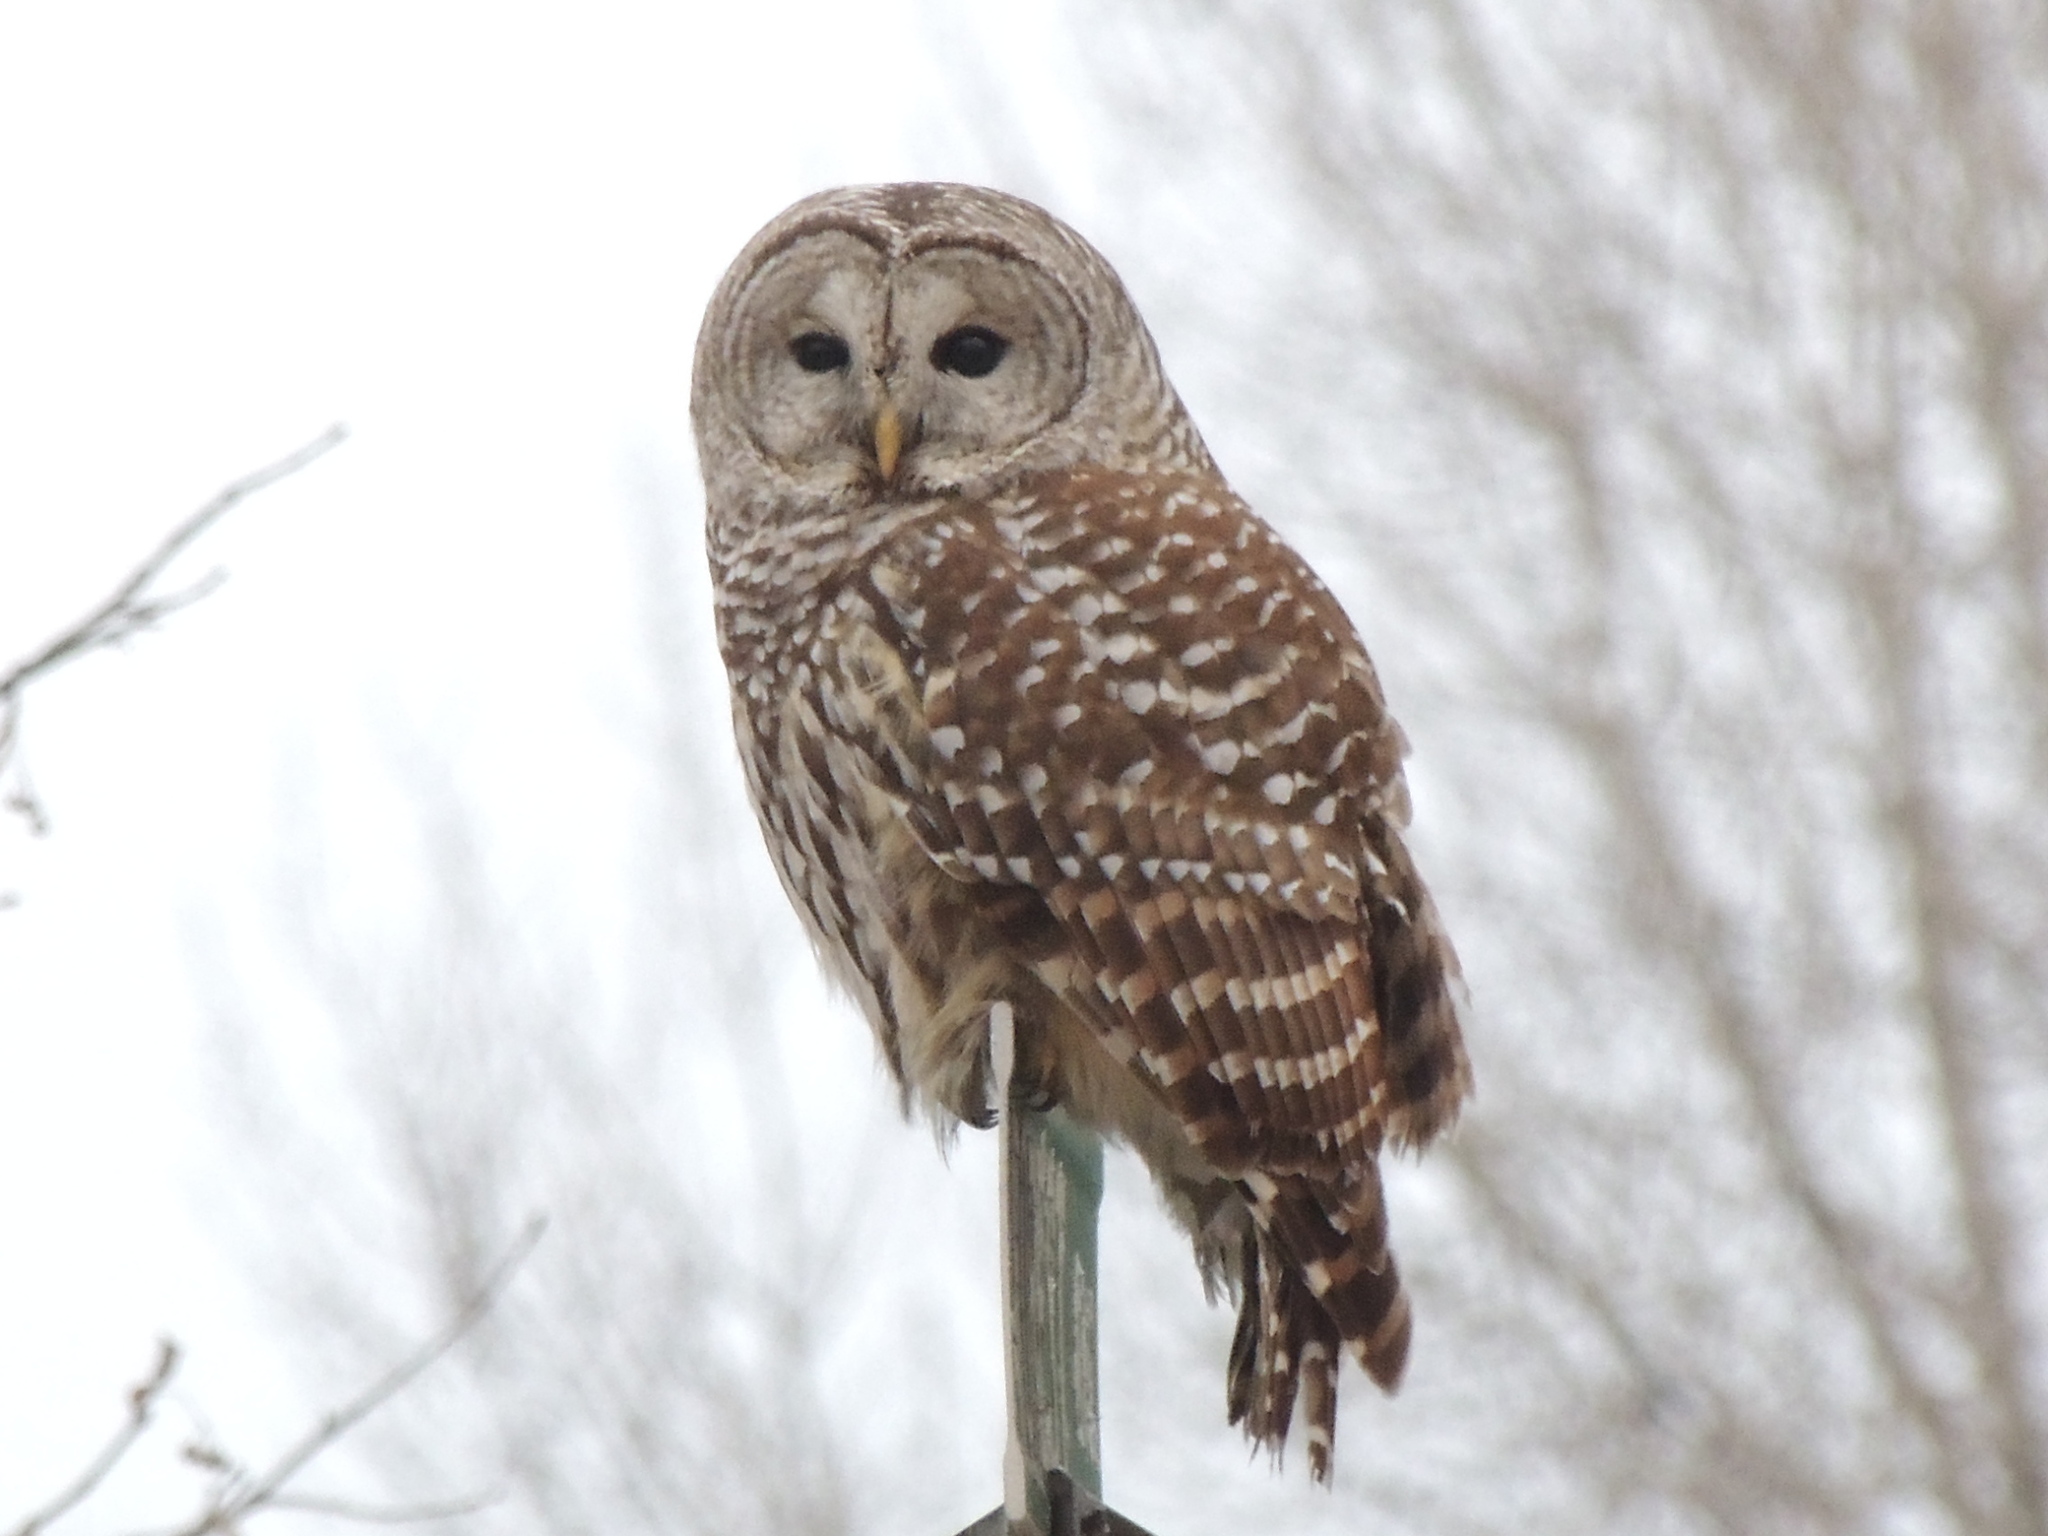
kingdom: Animalia
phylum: Chordata
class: Aves
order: Strigiformes
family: Strigidae
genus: Strix
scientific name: Strix varia
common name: Barred owl
